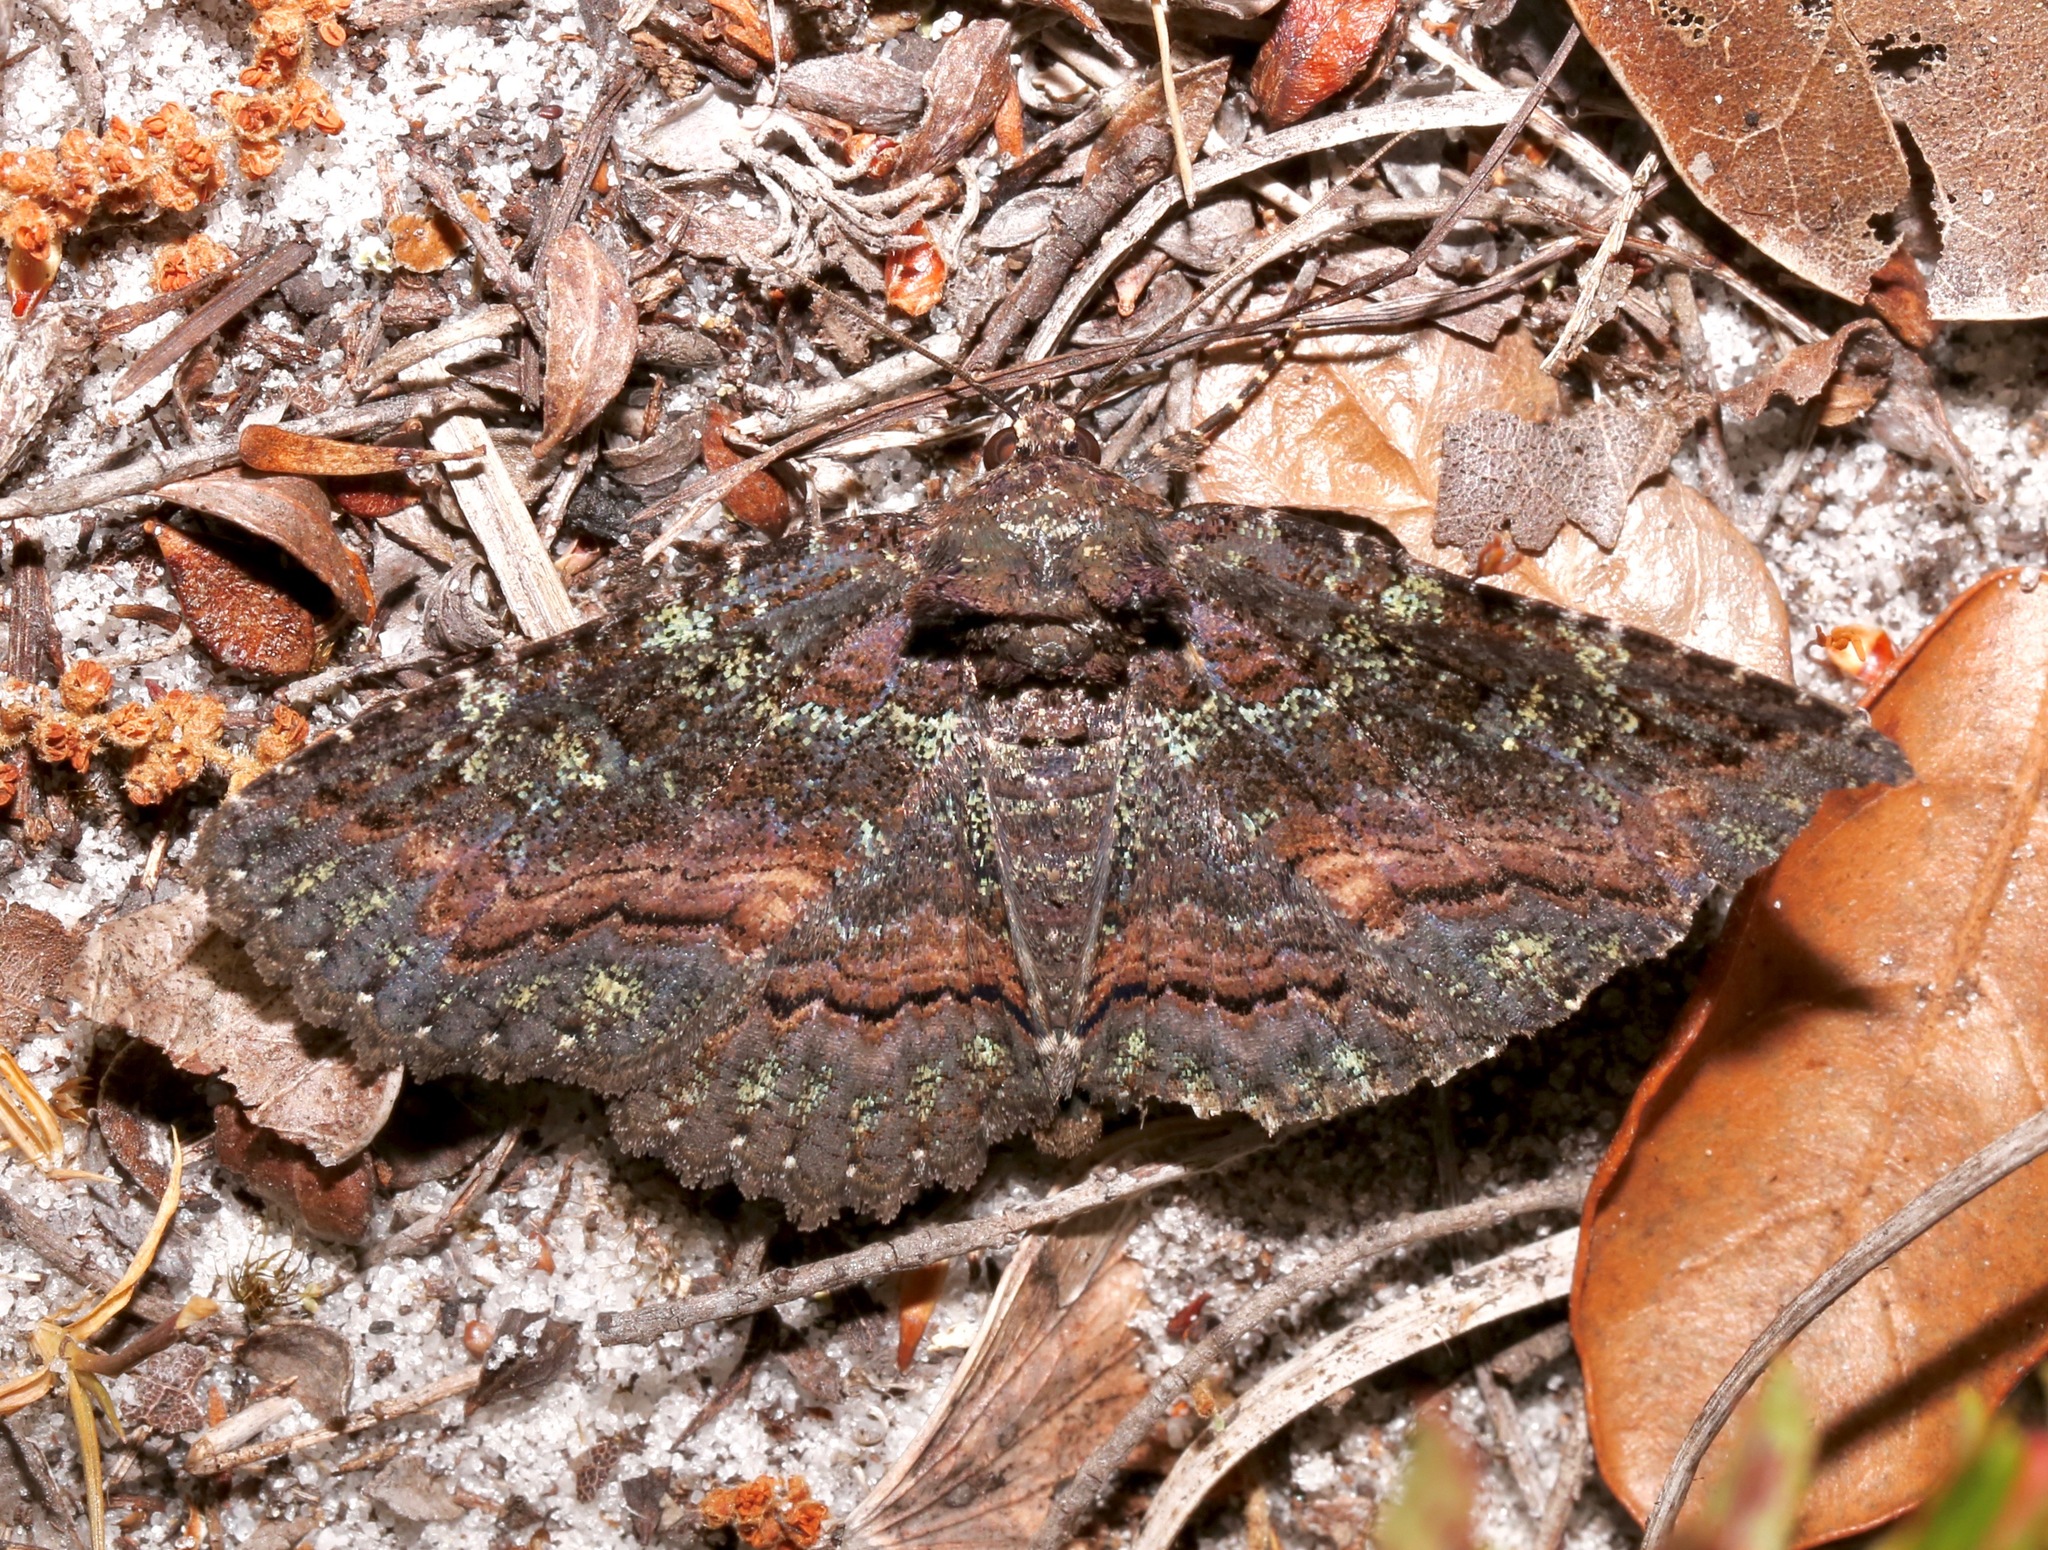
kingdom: Animalia
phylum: Arthropoda
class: Insecta
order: Lepidoptera
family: Erebidae
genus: Zale
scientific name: Zale aeruginosa
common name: Green-dusted zale moth
